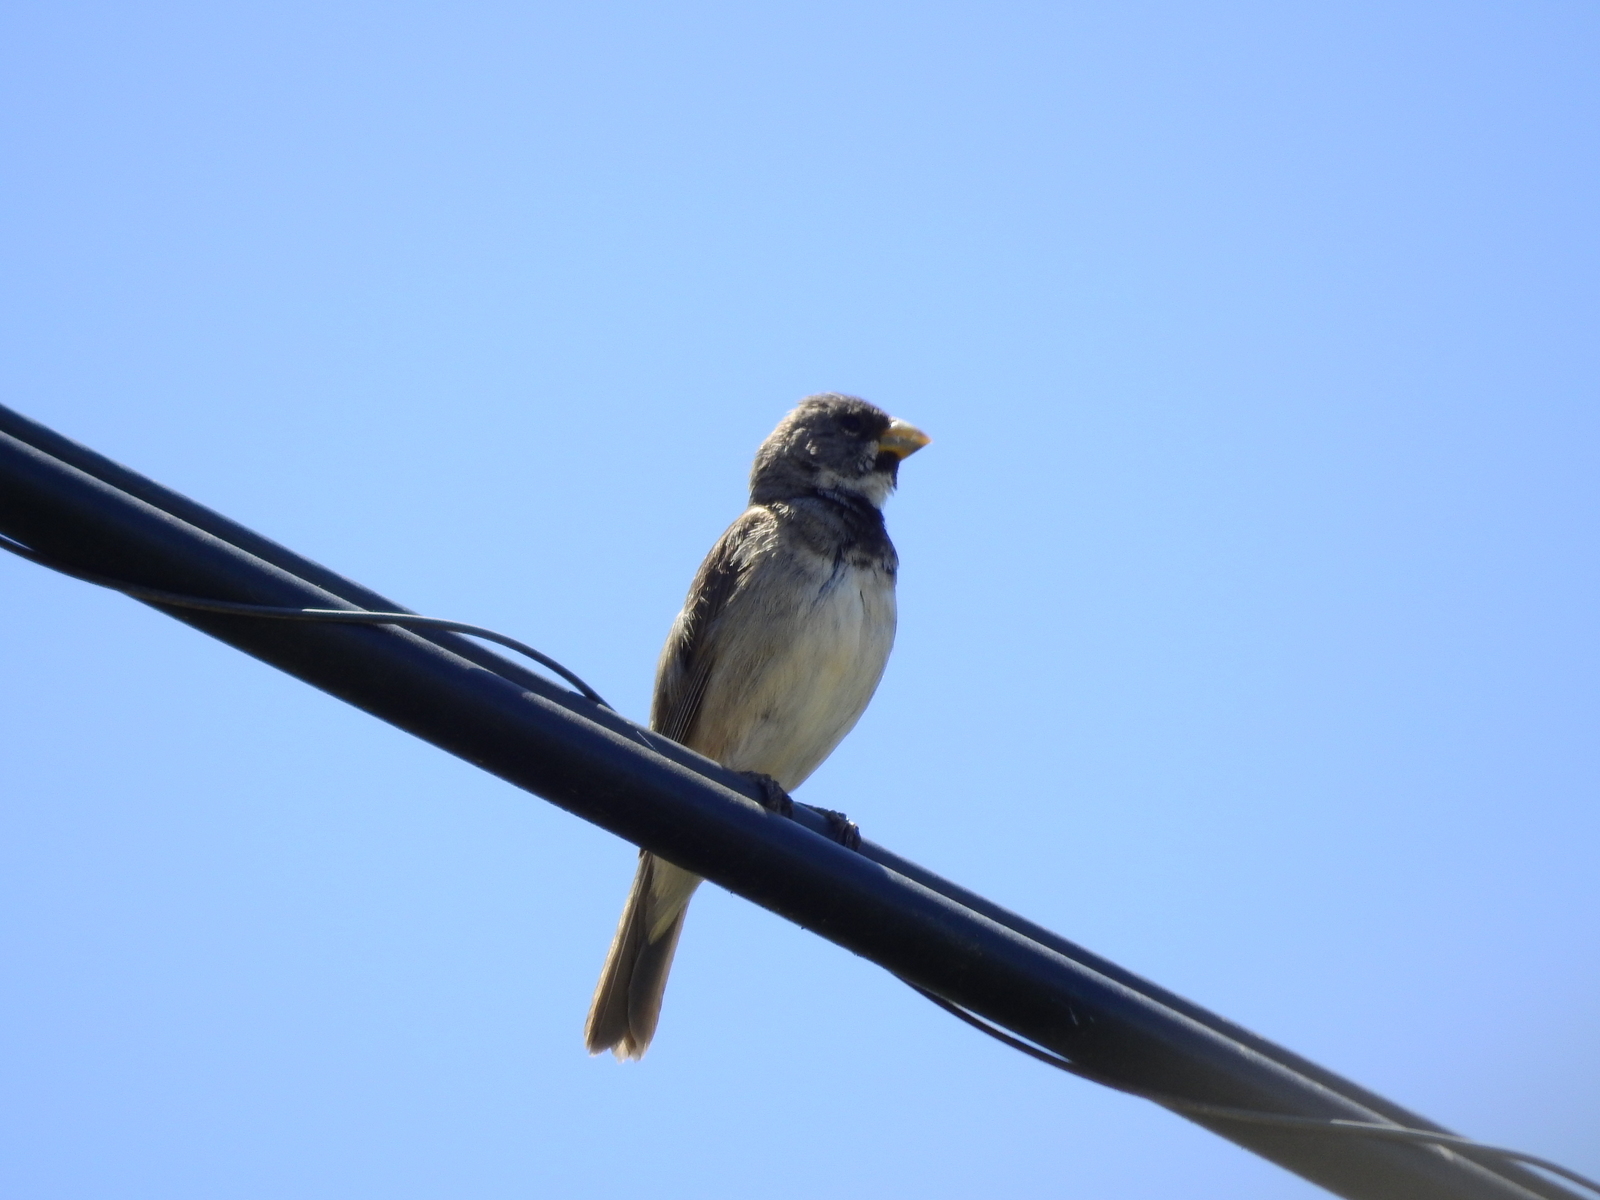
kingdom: Animalia
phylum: Chordata
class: Aves
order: Passeriformes
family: Thraupidae
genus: Sporophila
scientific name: Sporophila caerulescens
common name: Double-collared seedeater
